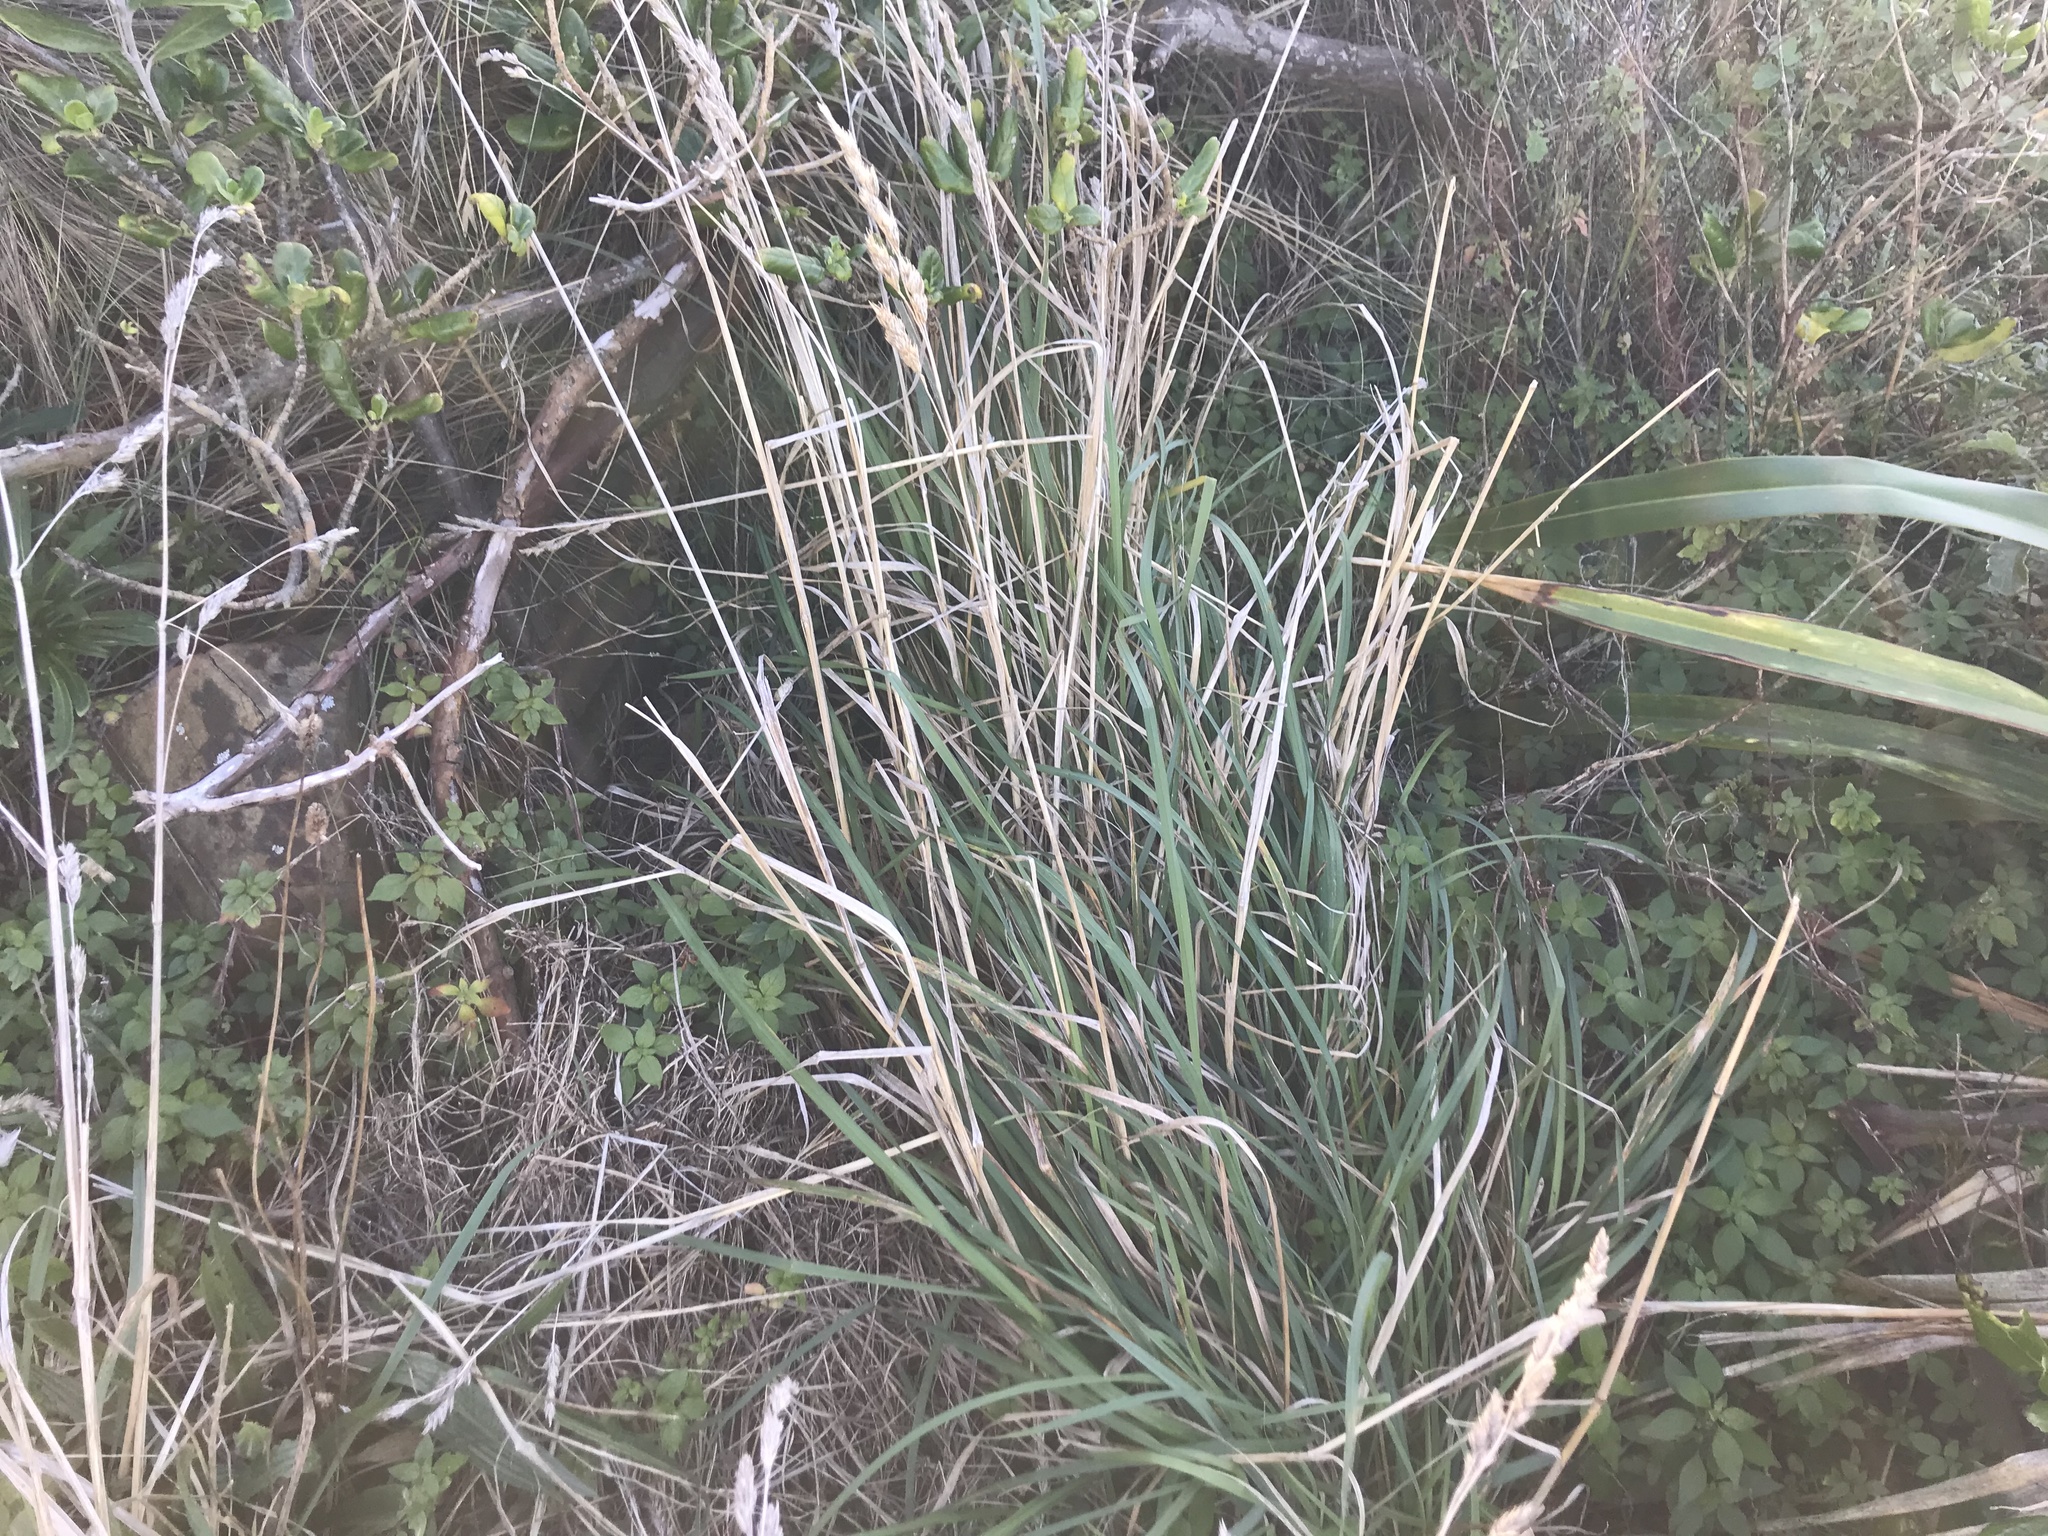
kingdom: Plantae
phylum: Tracheophyta
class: Liliopsida
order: Poales
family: Poaceae
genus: Dactylis
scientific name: Dactylis glomerata
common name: Orchardgrass
